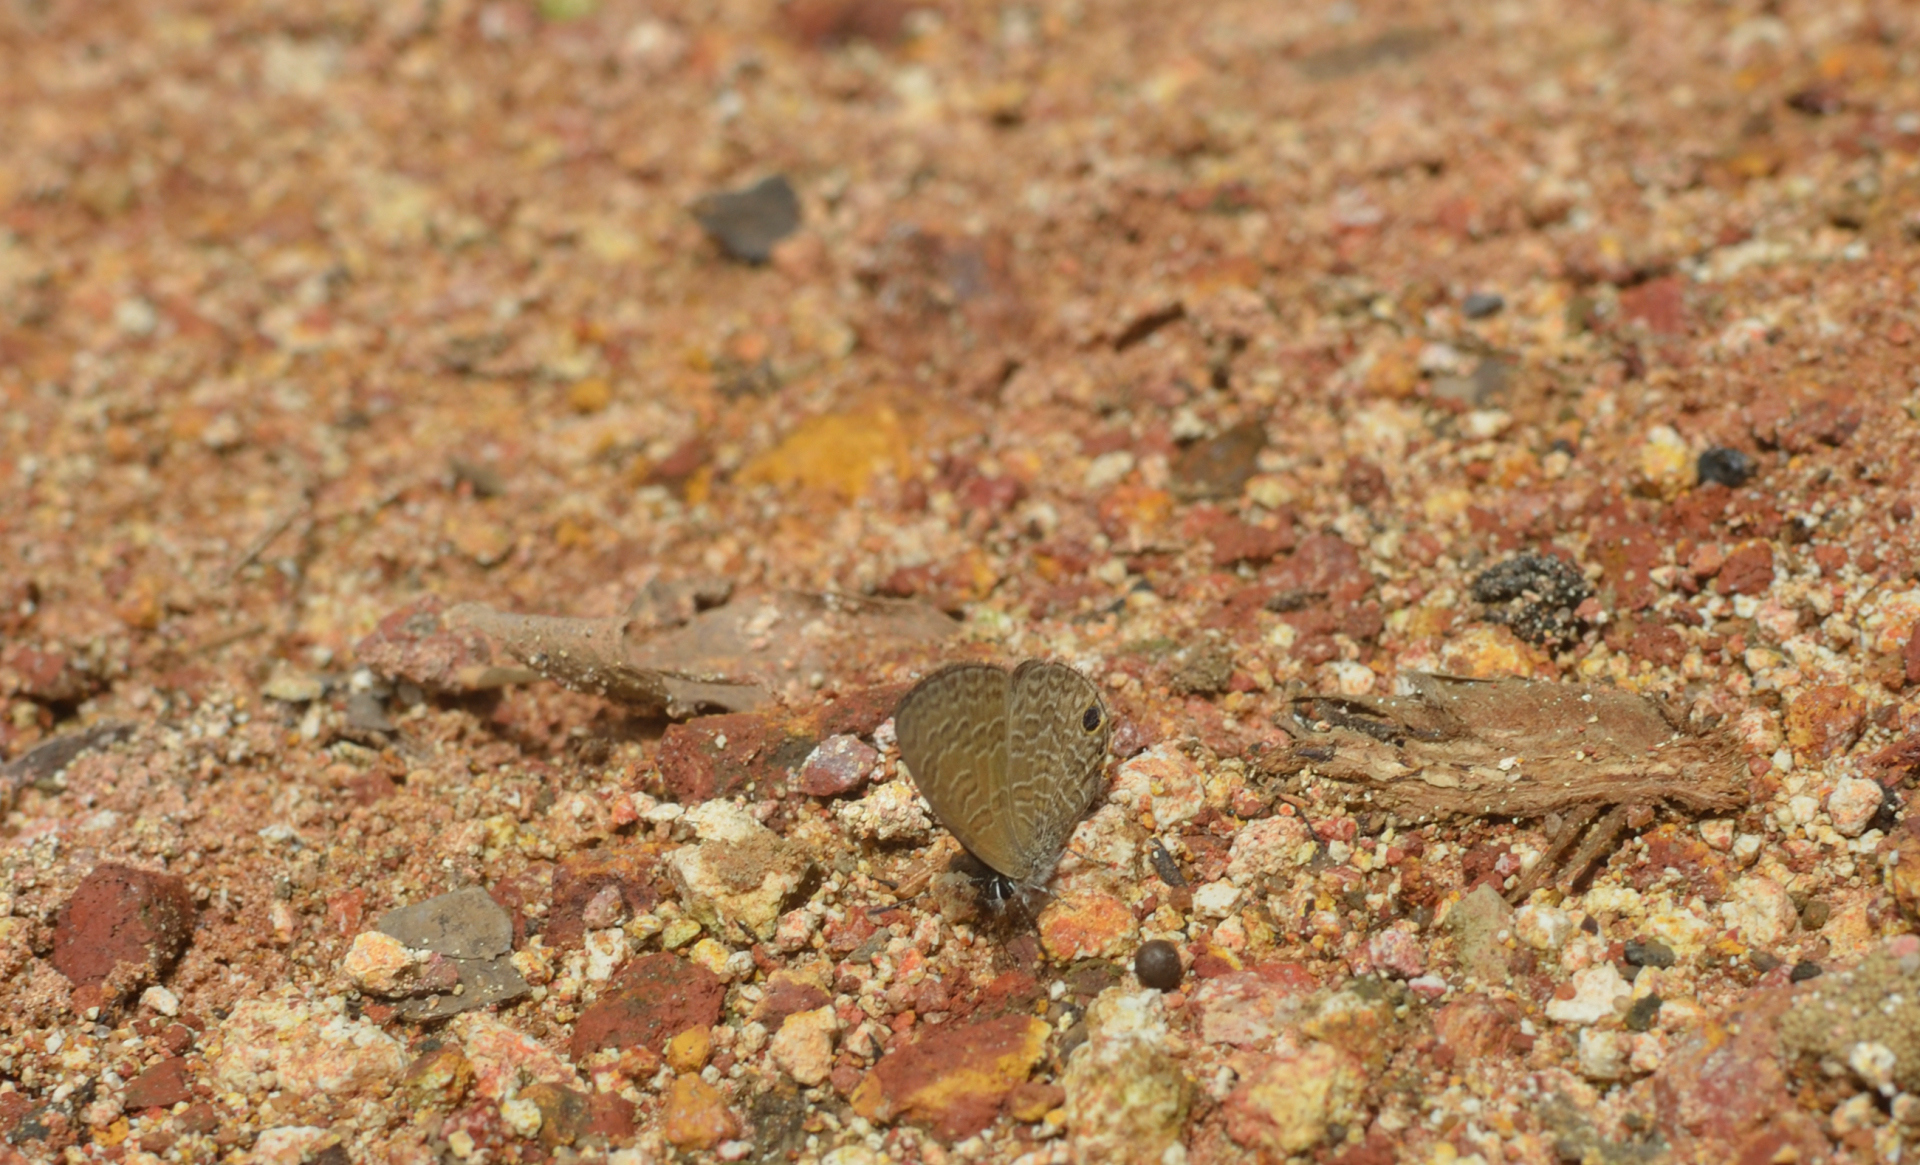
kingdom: Animalia
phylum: Arthropoda
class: Insecta
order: Lepidoptera
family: Lycaenidae
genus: Prosotas
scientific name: Prosotas nora
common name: Common line blue
